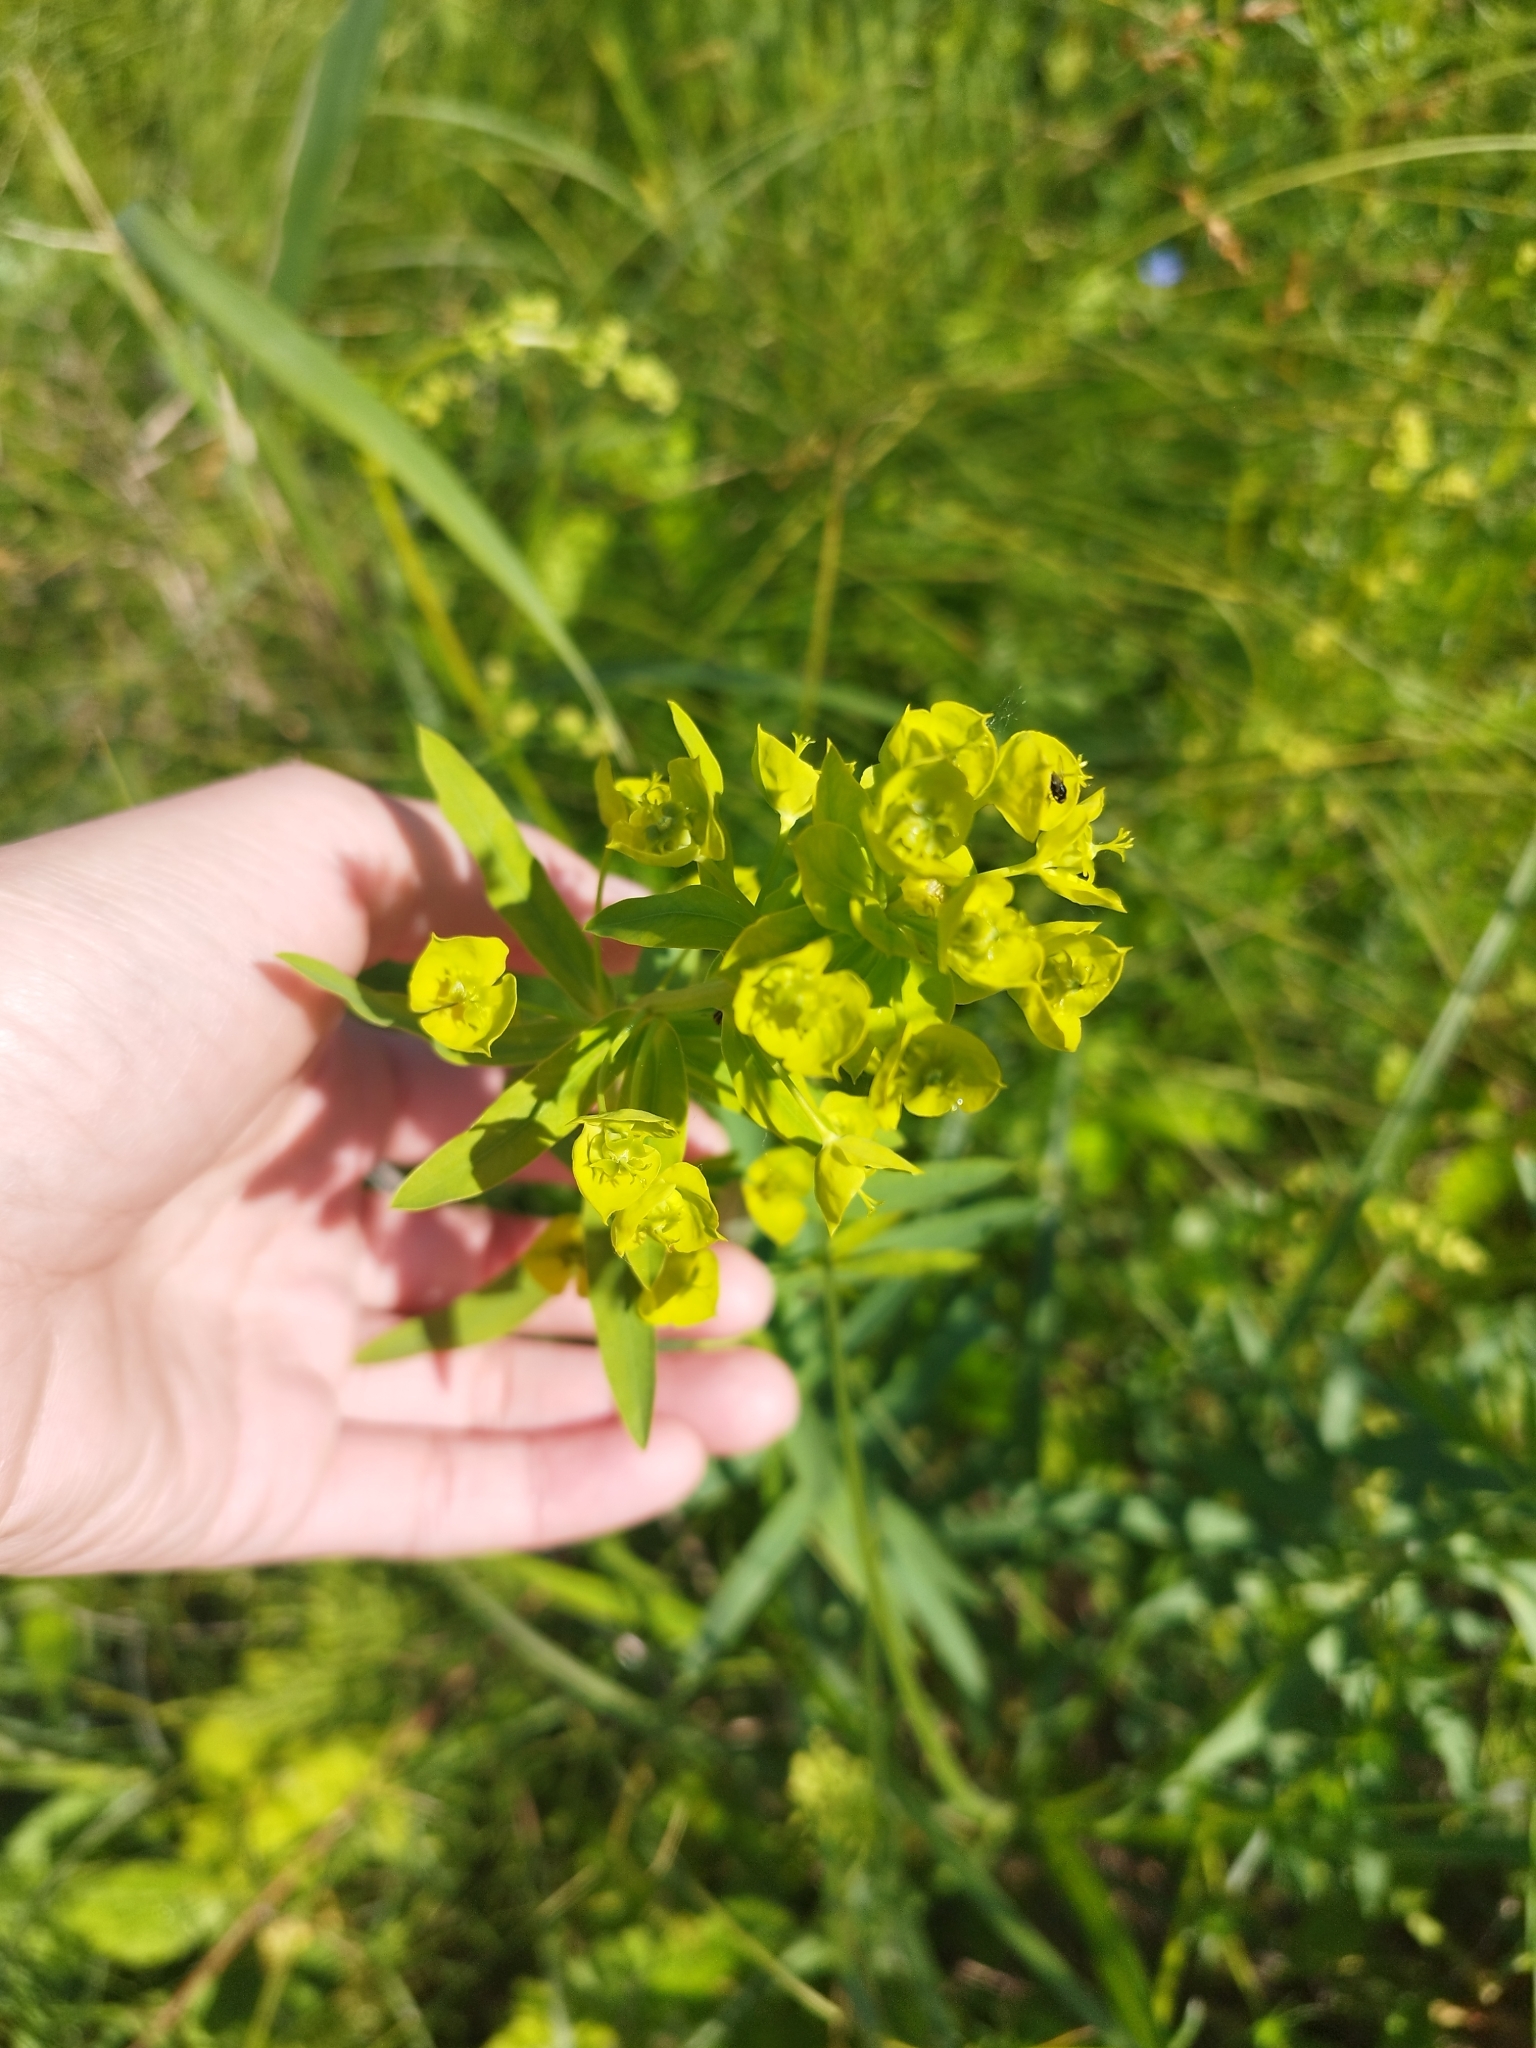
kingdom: Plantae
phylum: Tracheophyta
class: Magnoliopsida
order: Malpighiales
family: Euphorbiaceae
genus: Euphorbia
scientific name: Euphorbia virgata
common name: Leafy spurge
